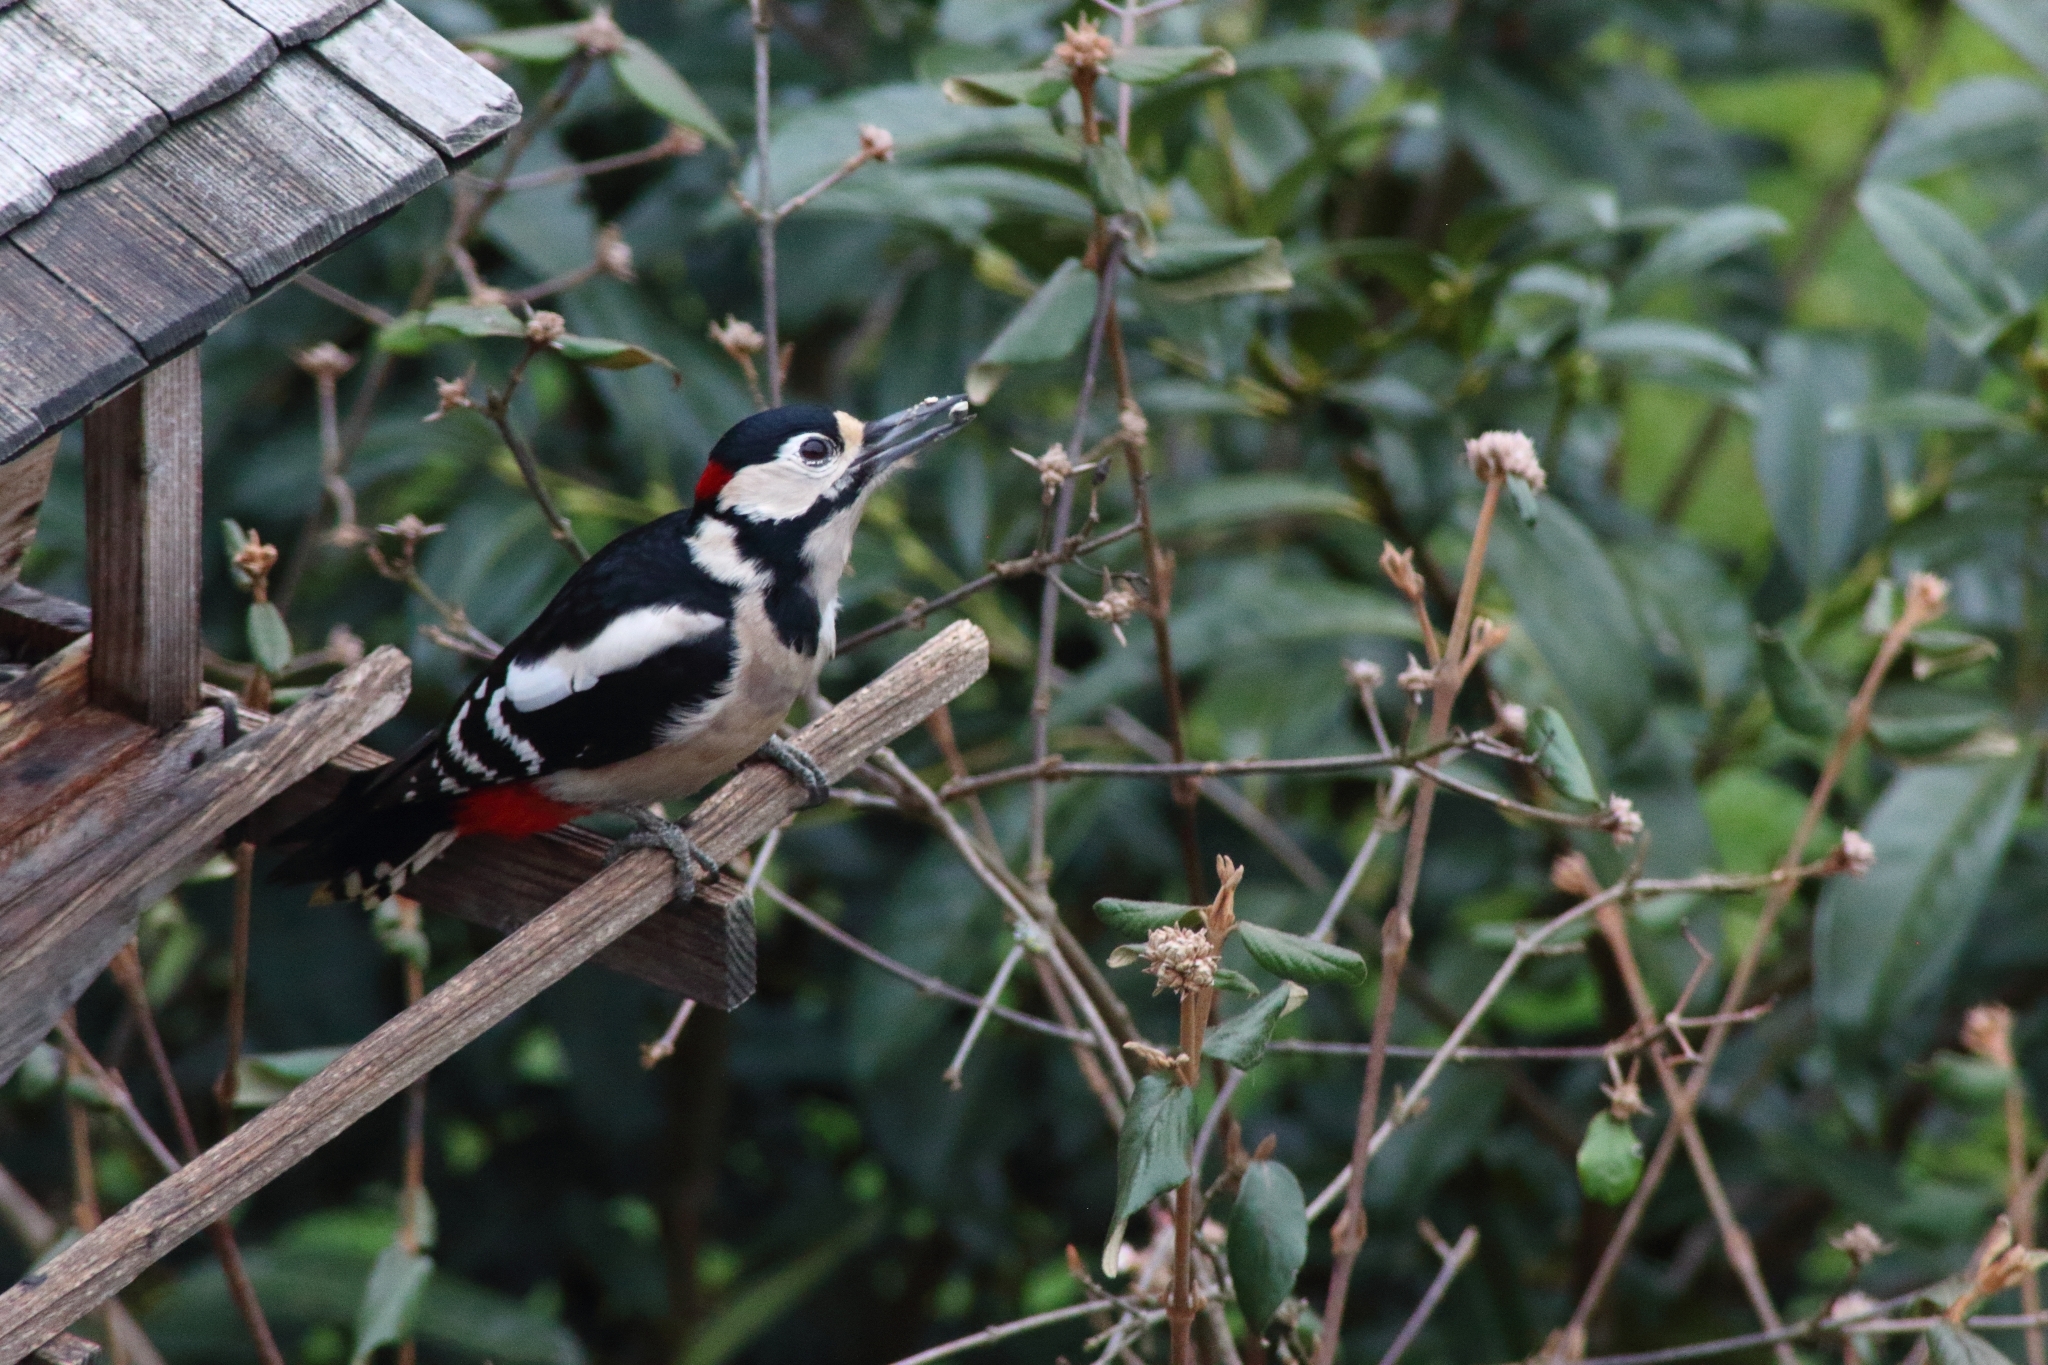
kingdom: Animalia
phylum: Chordata
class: Aves
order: Piciformes
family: Picidae
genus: Dendrocopos
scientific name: Dendrocopos major
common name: Great spotted woodpecker
